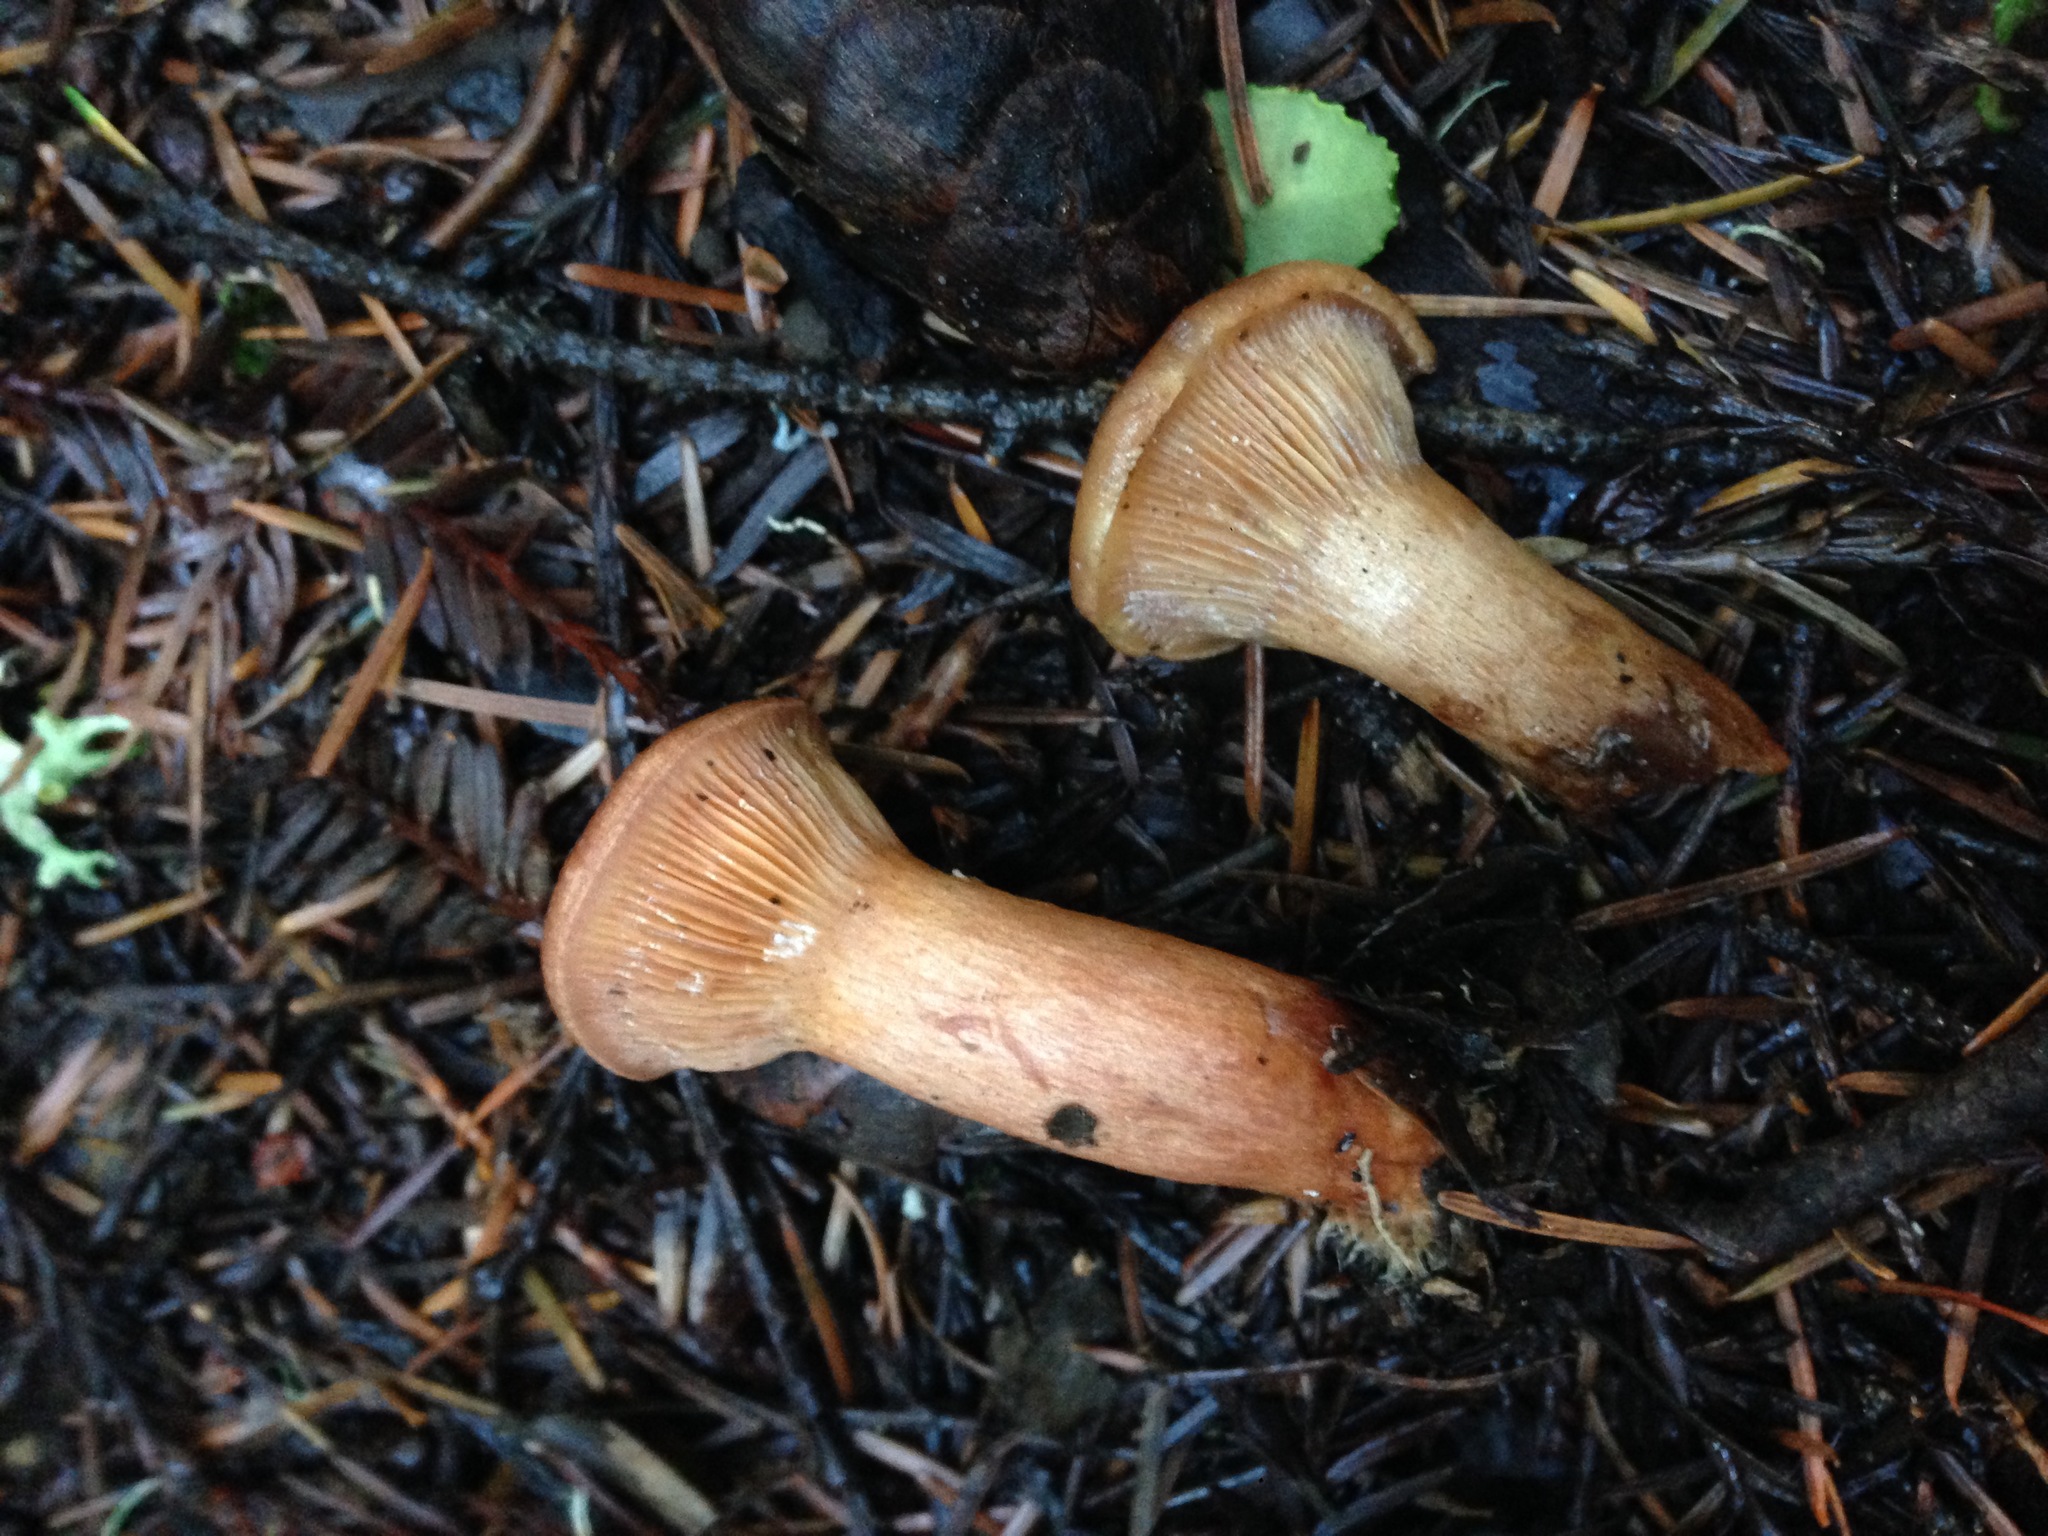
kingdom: Fungi
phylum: Basidiomycota
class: Agaricomycetes
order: Russulales
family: Russulaceae
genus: Lactarius
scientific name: Lactarius xanthogalactus
